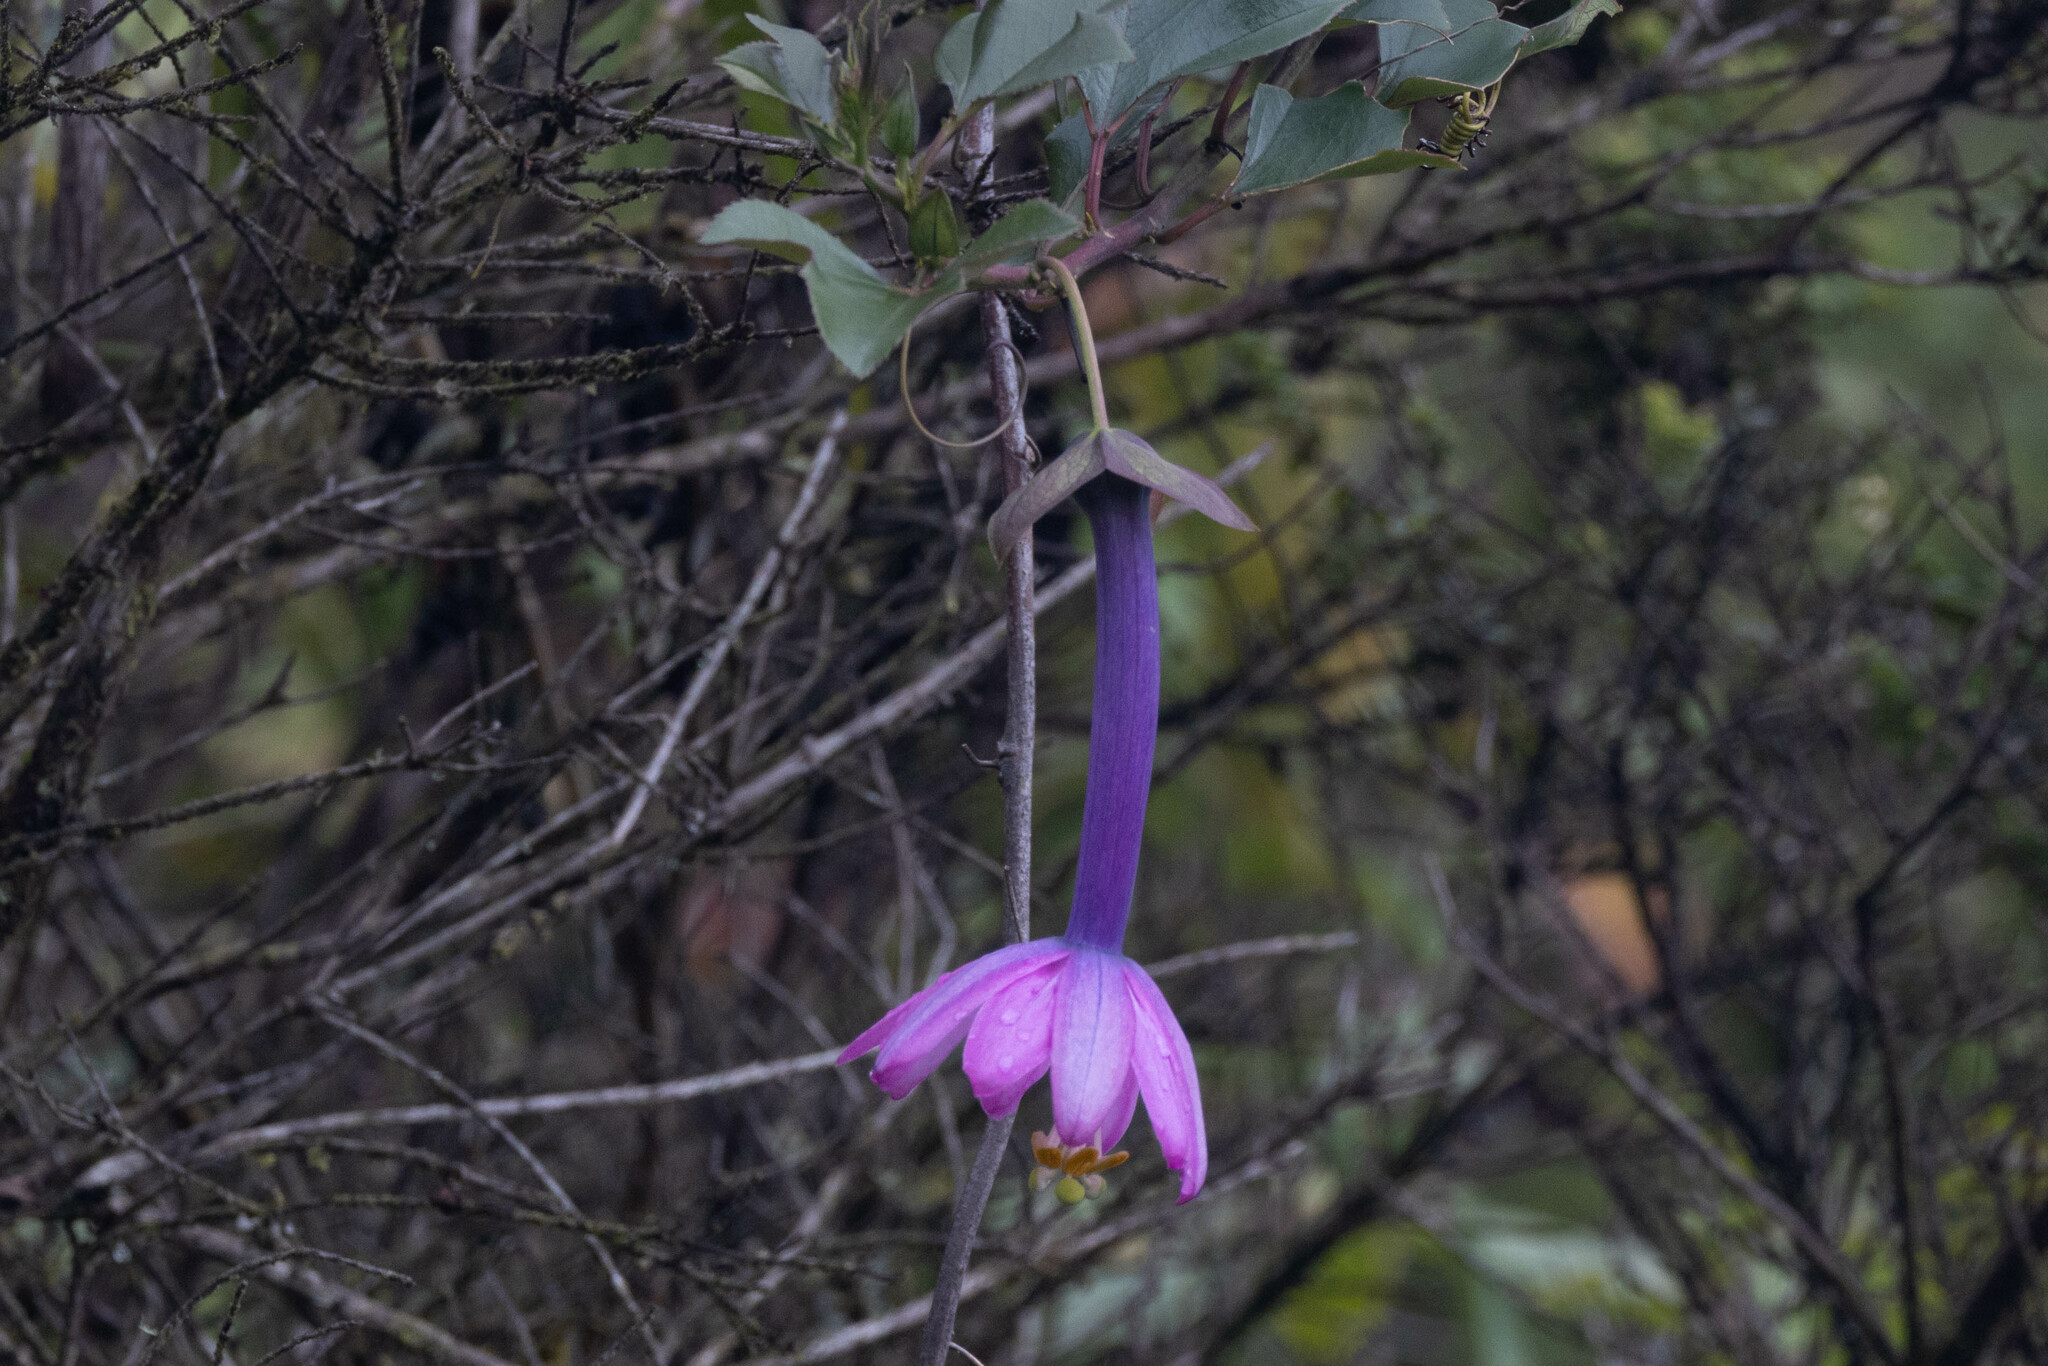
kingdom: Plantae
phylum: Tracheophyta
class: Magnoliopsida
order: Malpighiales
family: Passifloraceae
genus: Passiflora
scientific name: Passiflora cumbalensis
